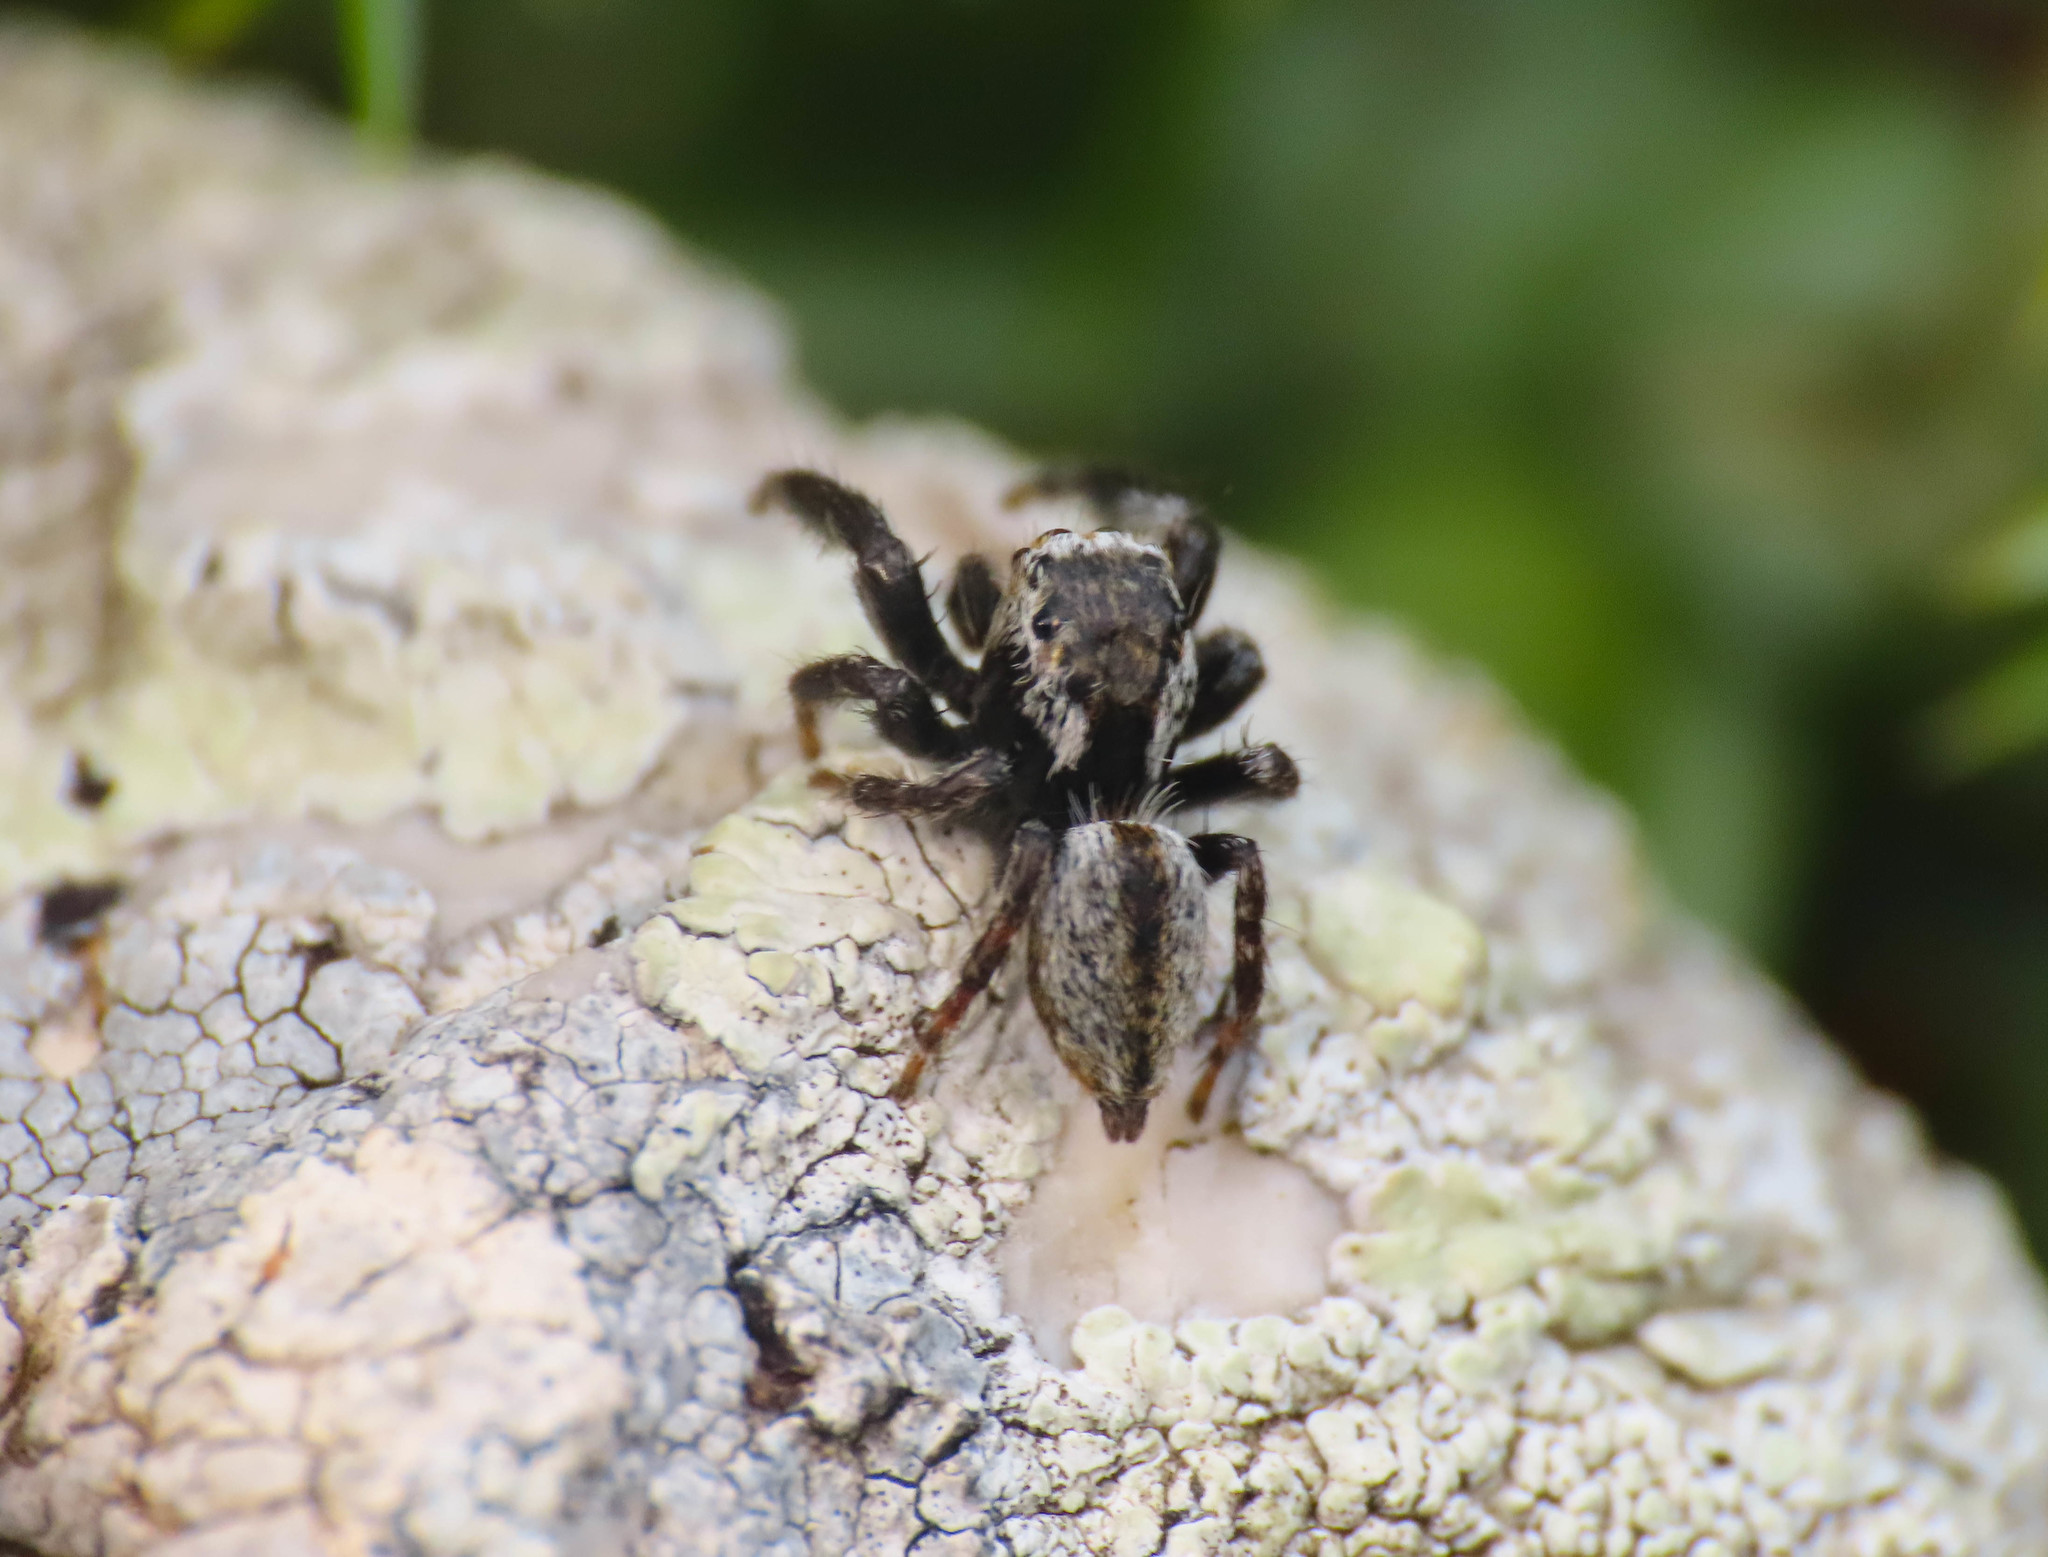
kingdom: Animalia
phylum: Arthropoda
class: Arachnida
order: Araneae
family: Salticidae
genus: Evarcha
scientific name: Evarcha michailovi
